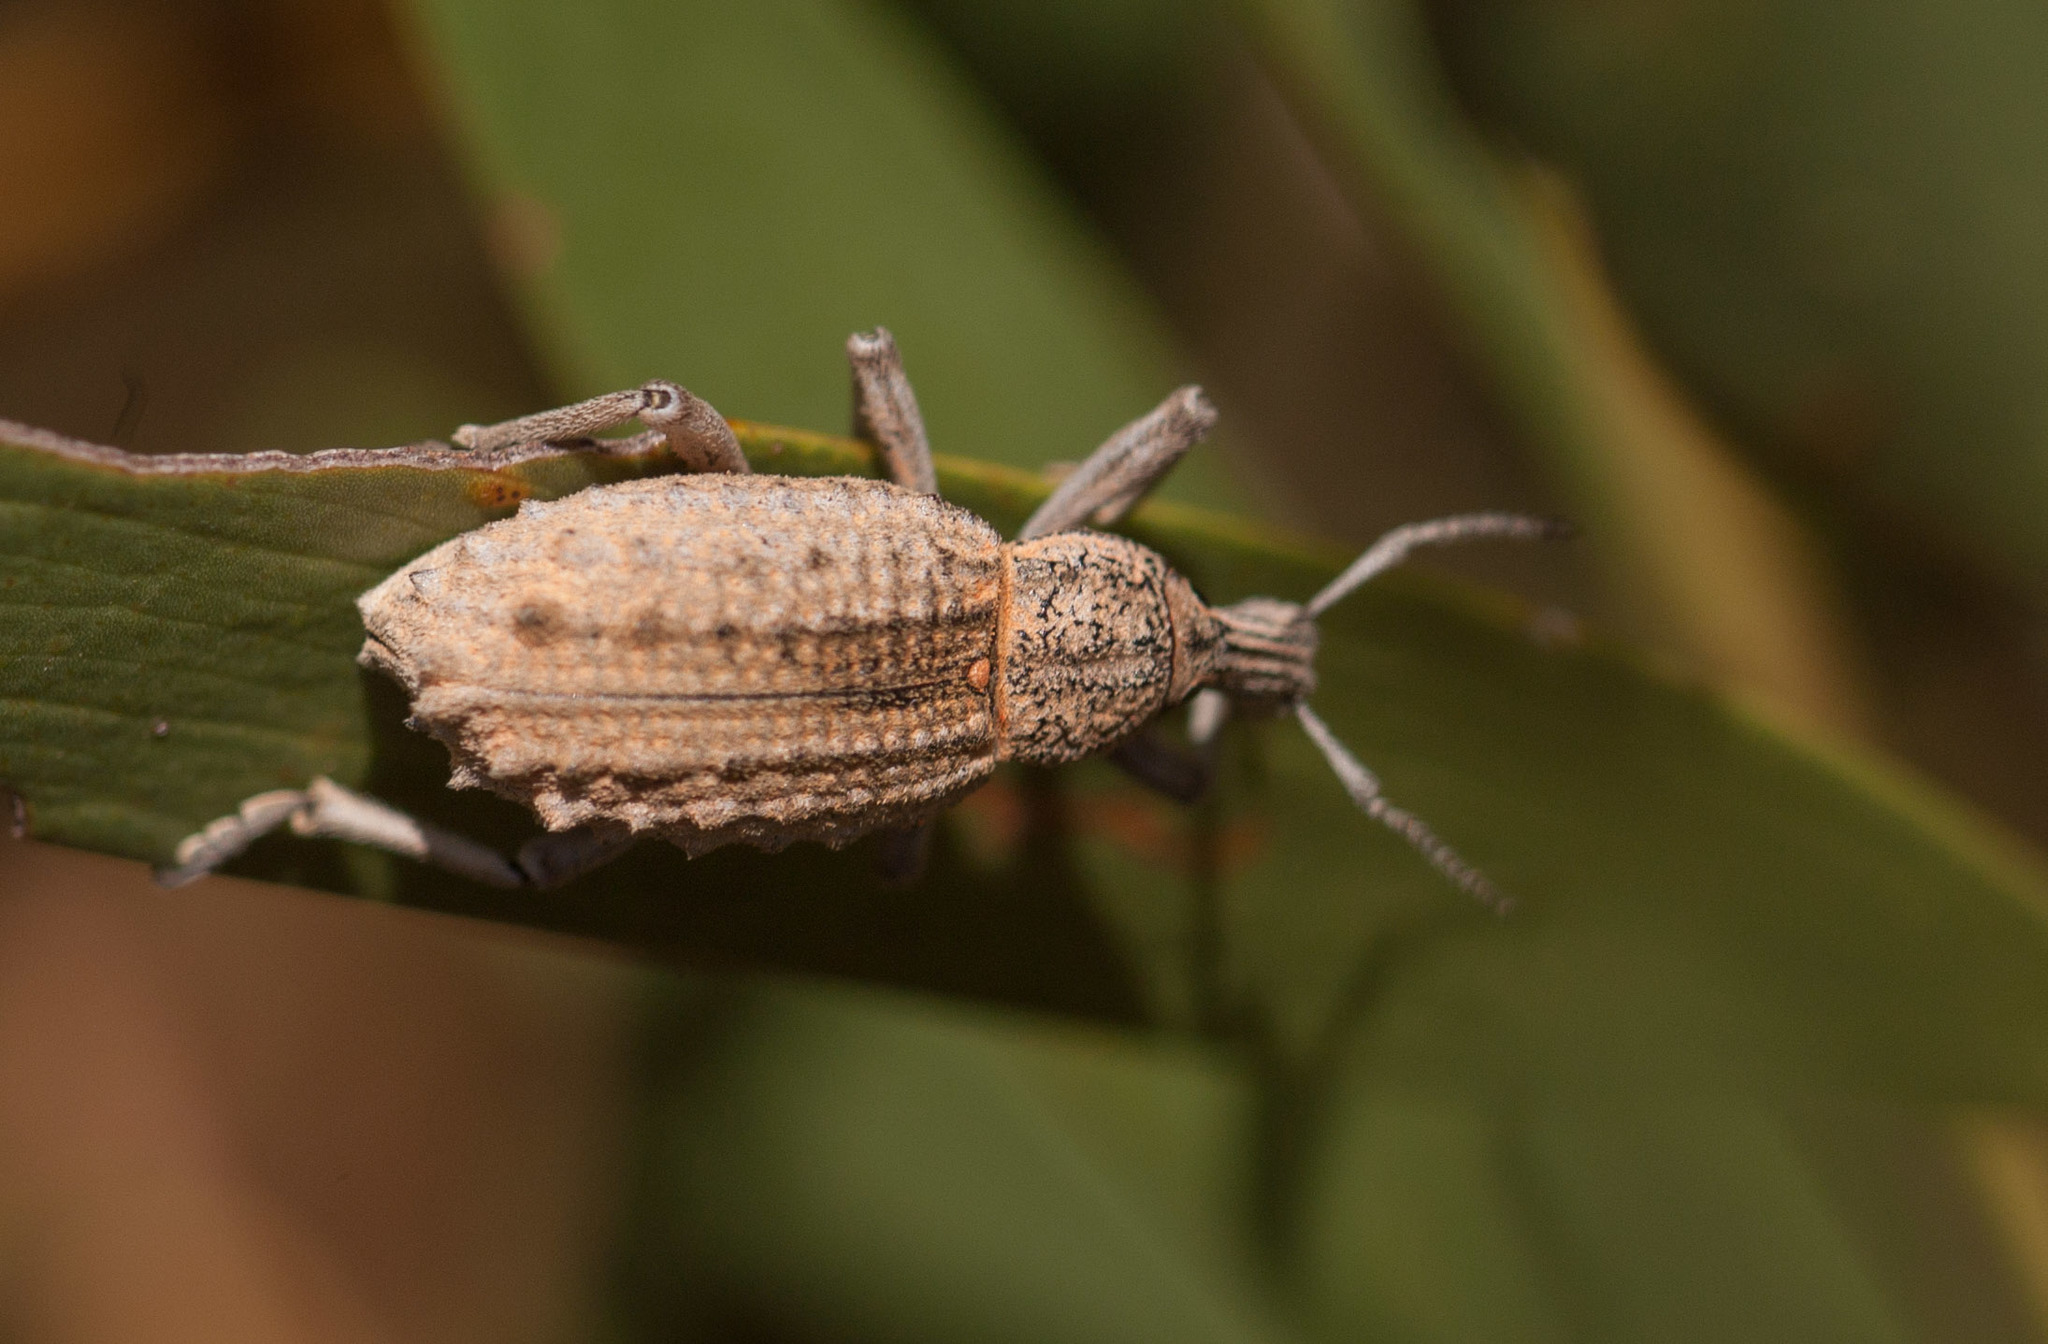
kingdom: Animalia
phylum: Arthropoda
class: Insecta
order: Coleoptera
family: Curculionidae
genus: Leptopius
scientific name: Leptopius
